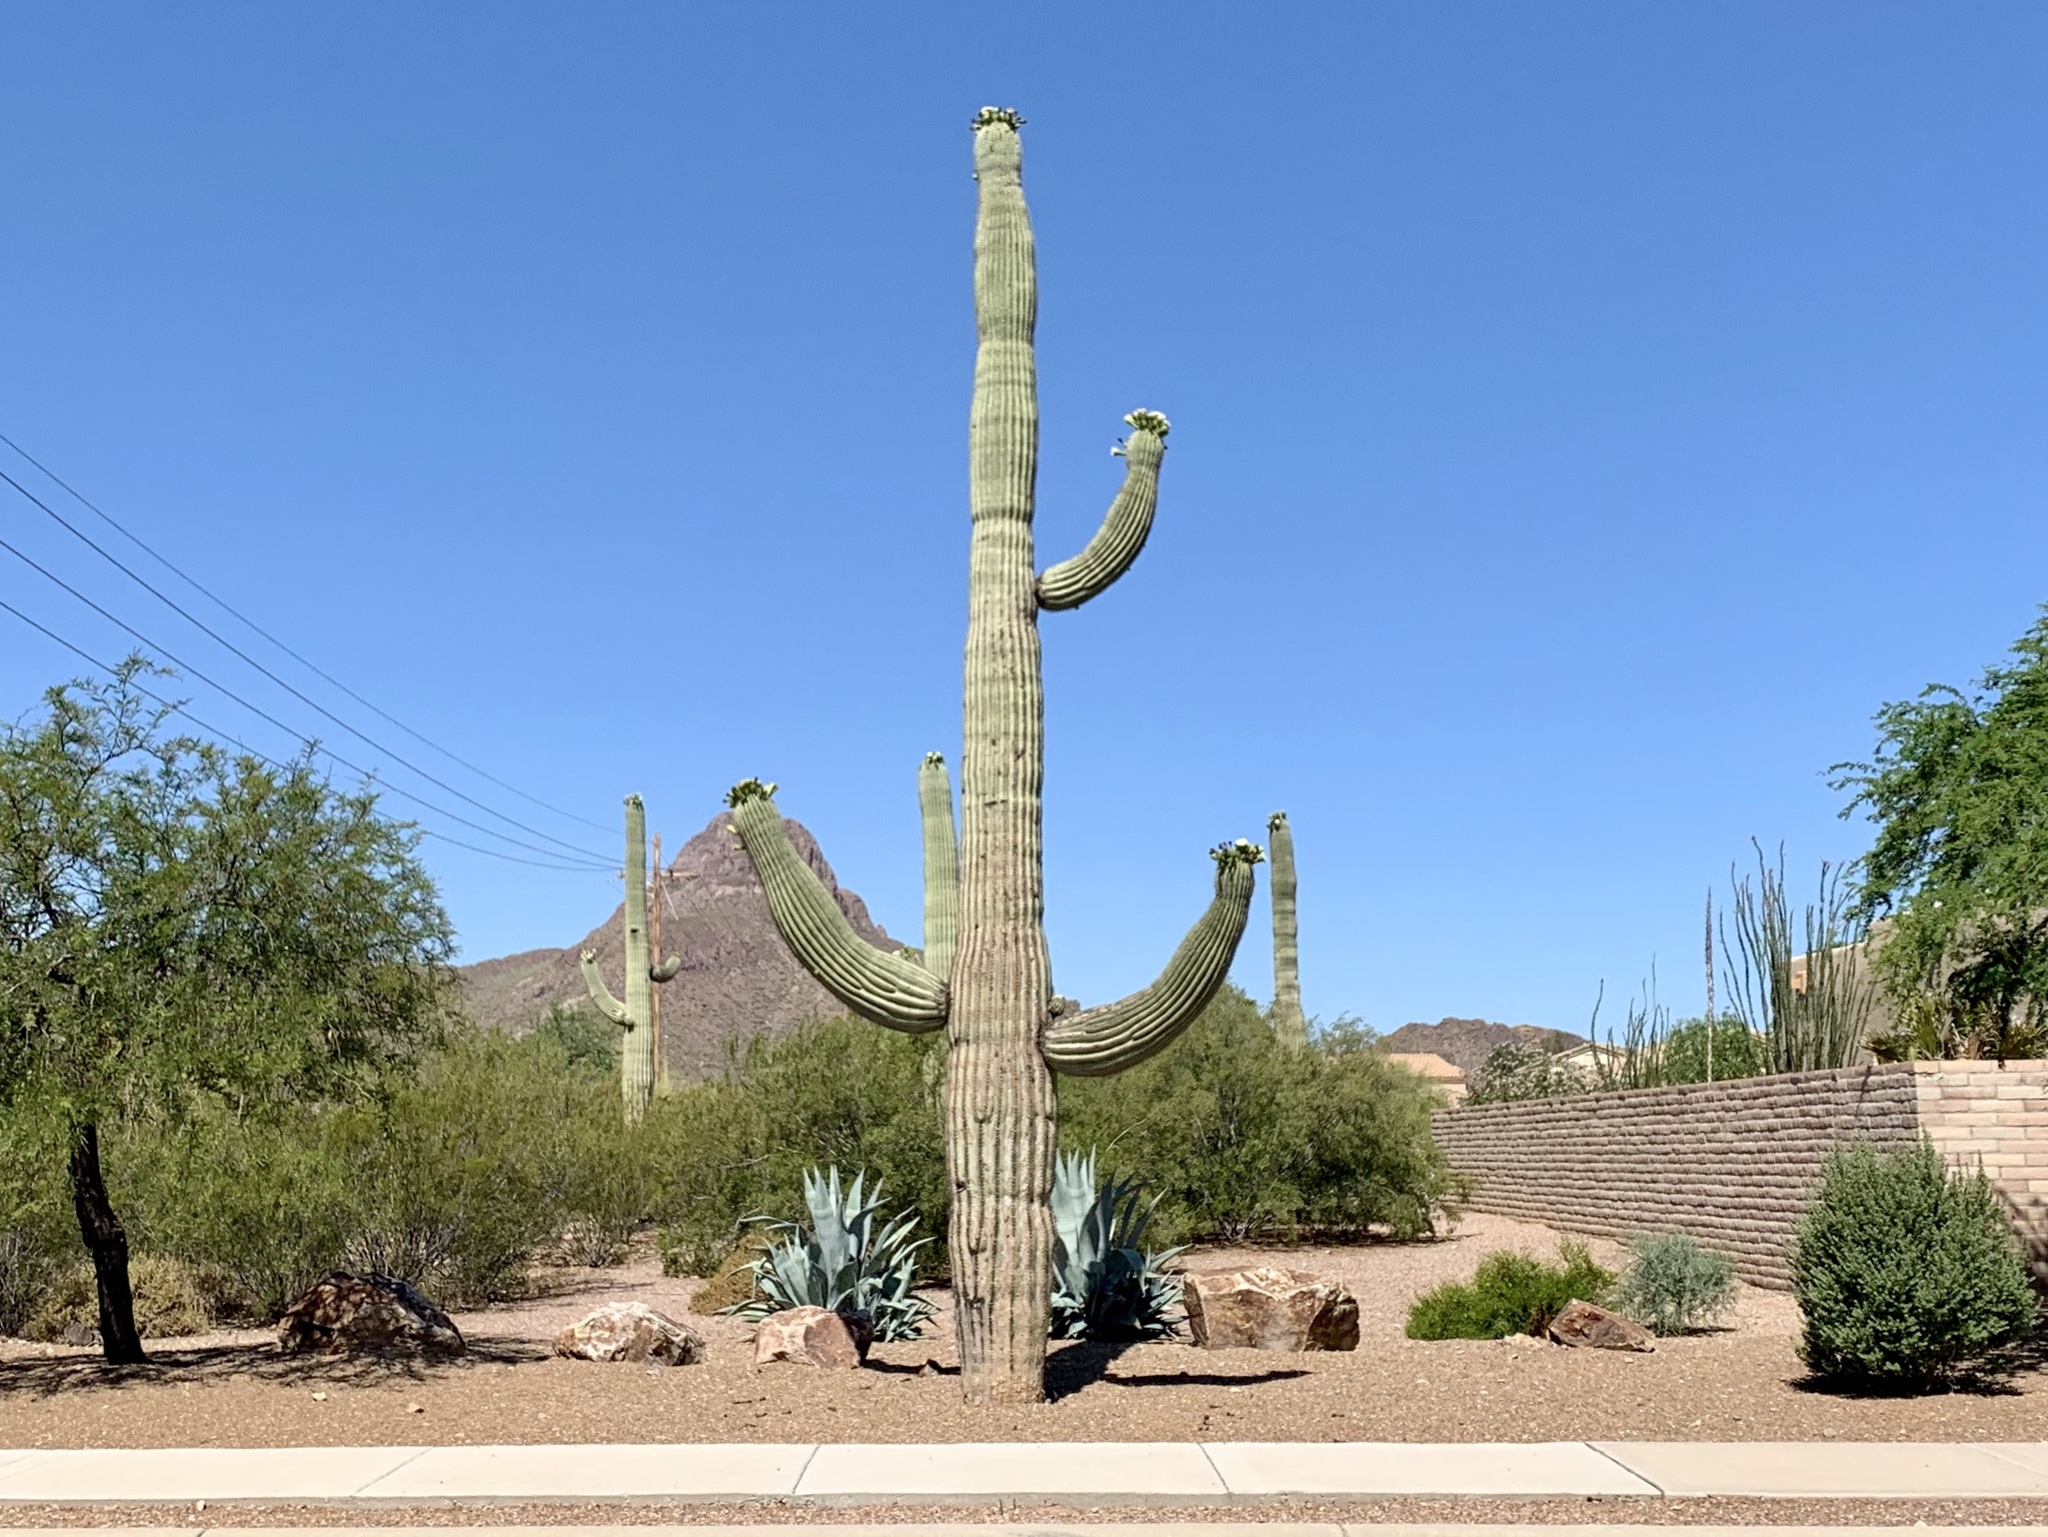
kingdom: Plantae
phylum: Tracheophyta
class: Magnoliopsida
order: Caryophyllales
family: Cactaceae
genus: Carnegiea
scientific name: Carnegiea gigantea
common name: Saguaro
